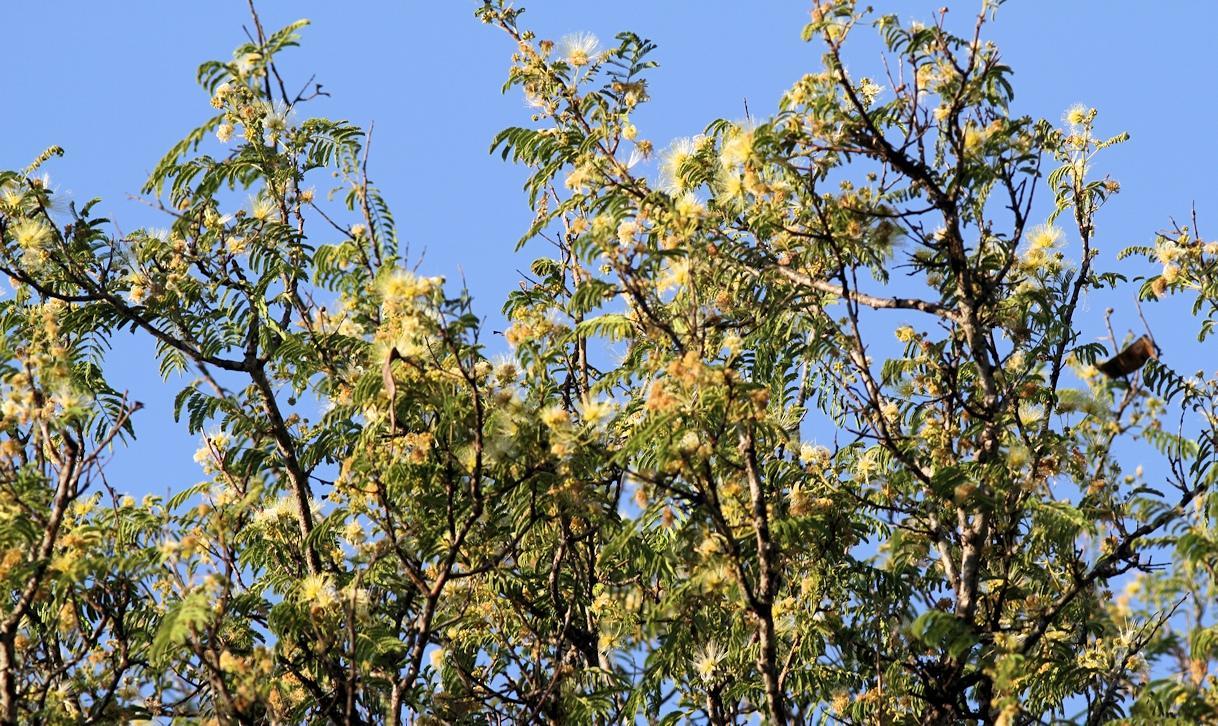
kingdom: Plantae
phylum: Tracheophyta
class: Magnoliopsida
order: Fabales
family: Fabaceae
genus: Albizia
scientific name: Albizia harveyi
